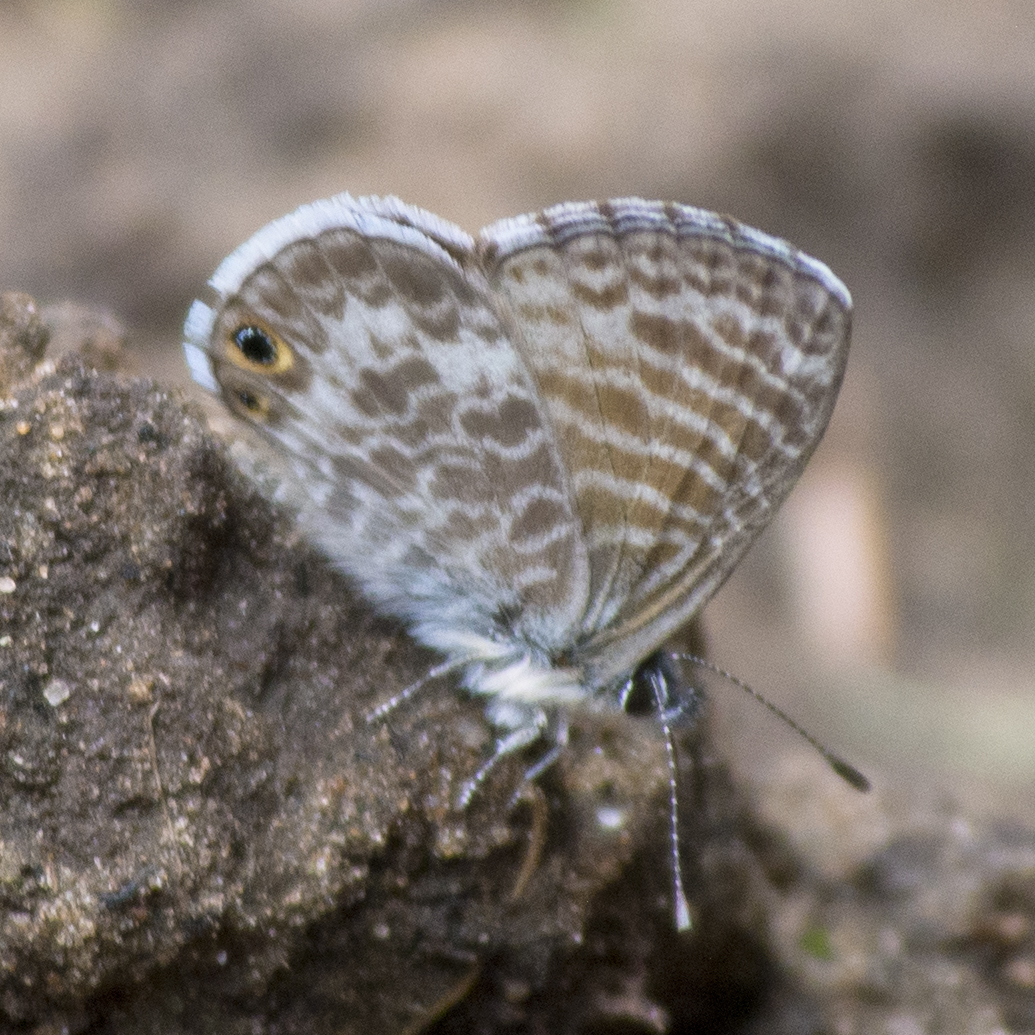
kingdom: Animalia
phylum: Arthropoda
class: Insecta
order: Lepidoptera
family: Lycaenidae
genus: Leptotes
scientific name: Leptotes marina
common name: Marine blue
